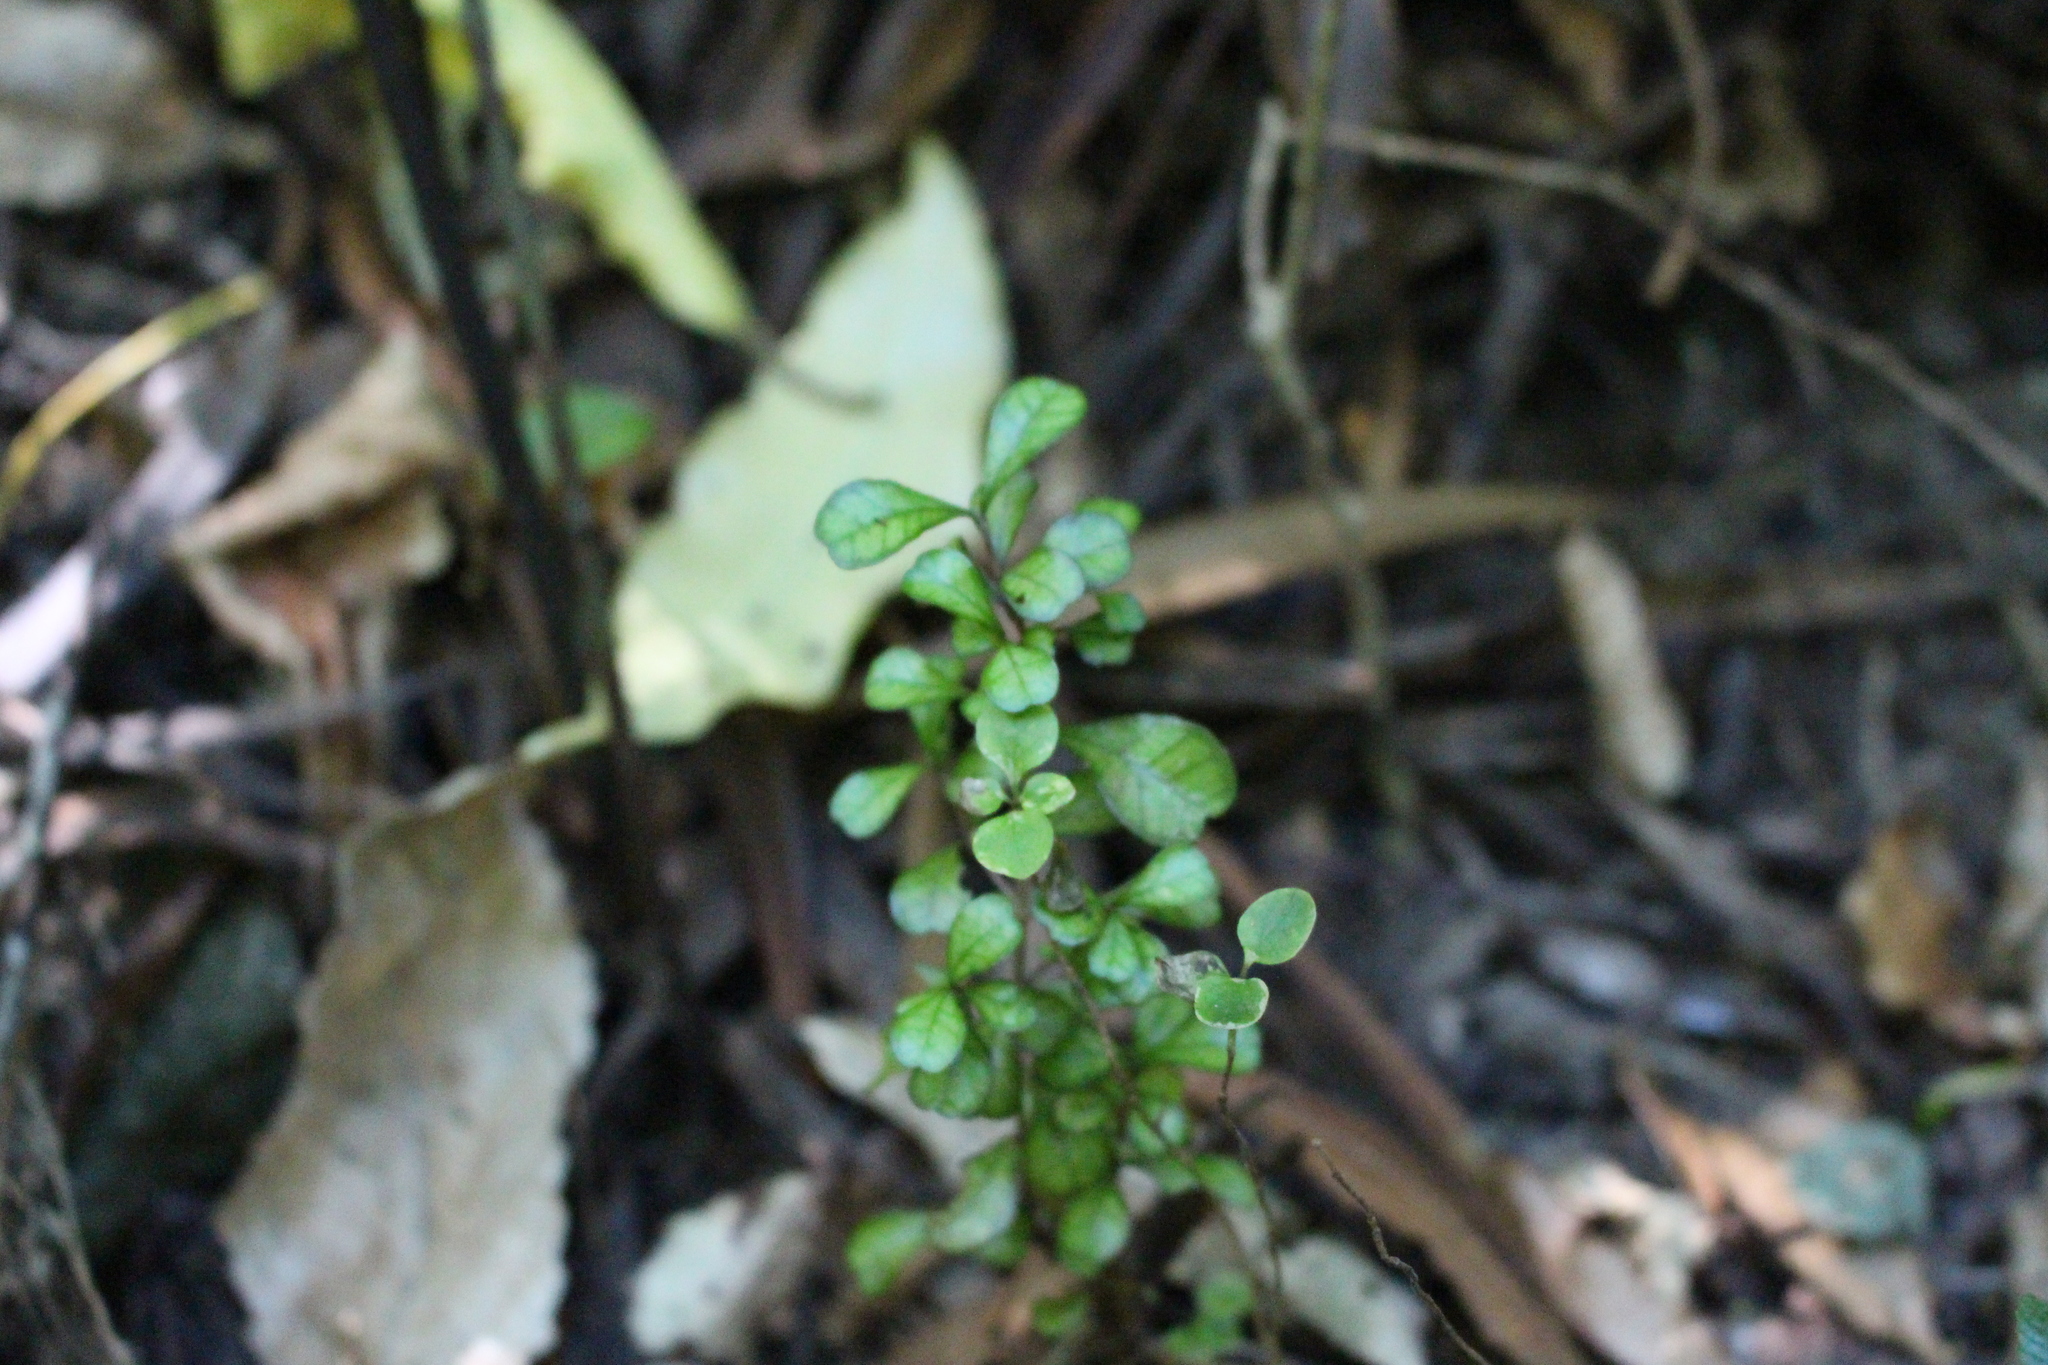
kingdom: Plantae
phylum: Tracheophyta
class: Magnoliopsida
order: Myrtales
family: Myrtaceae
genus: Lophomyrtus
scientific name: Lophomyrtus obcordata
